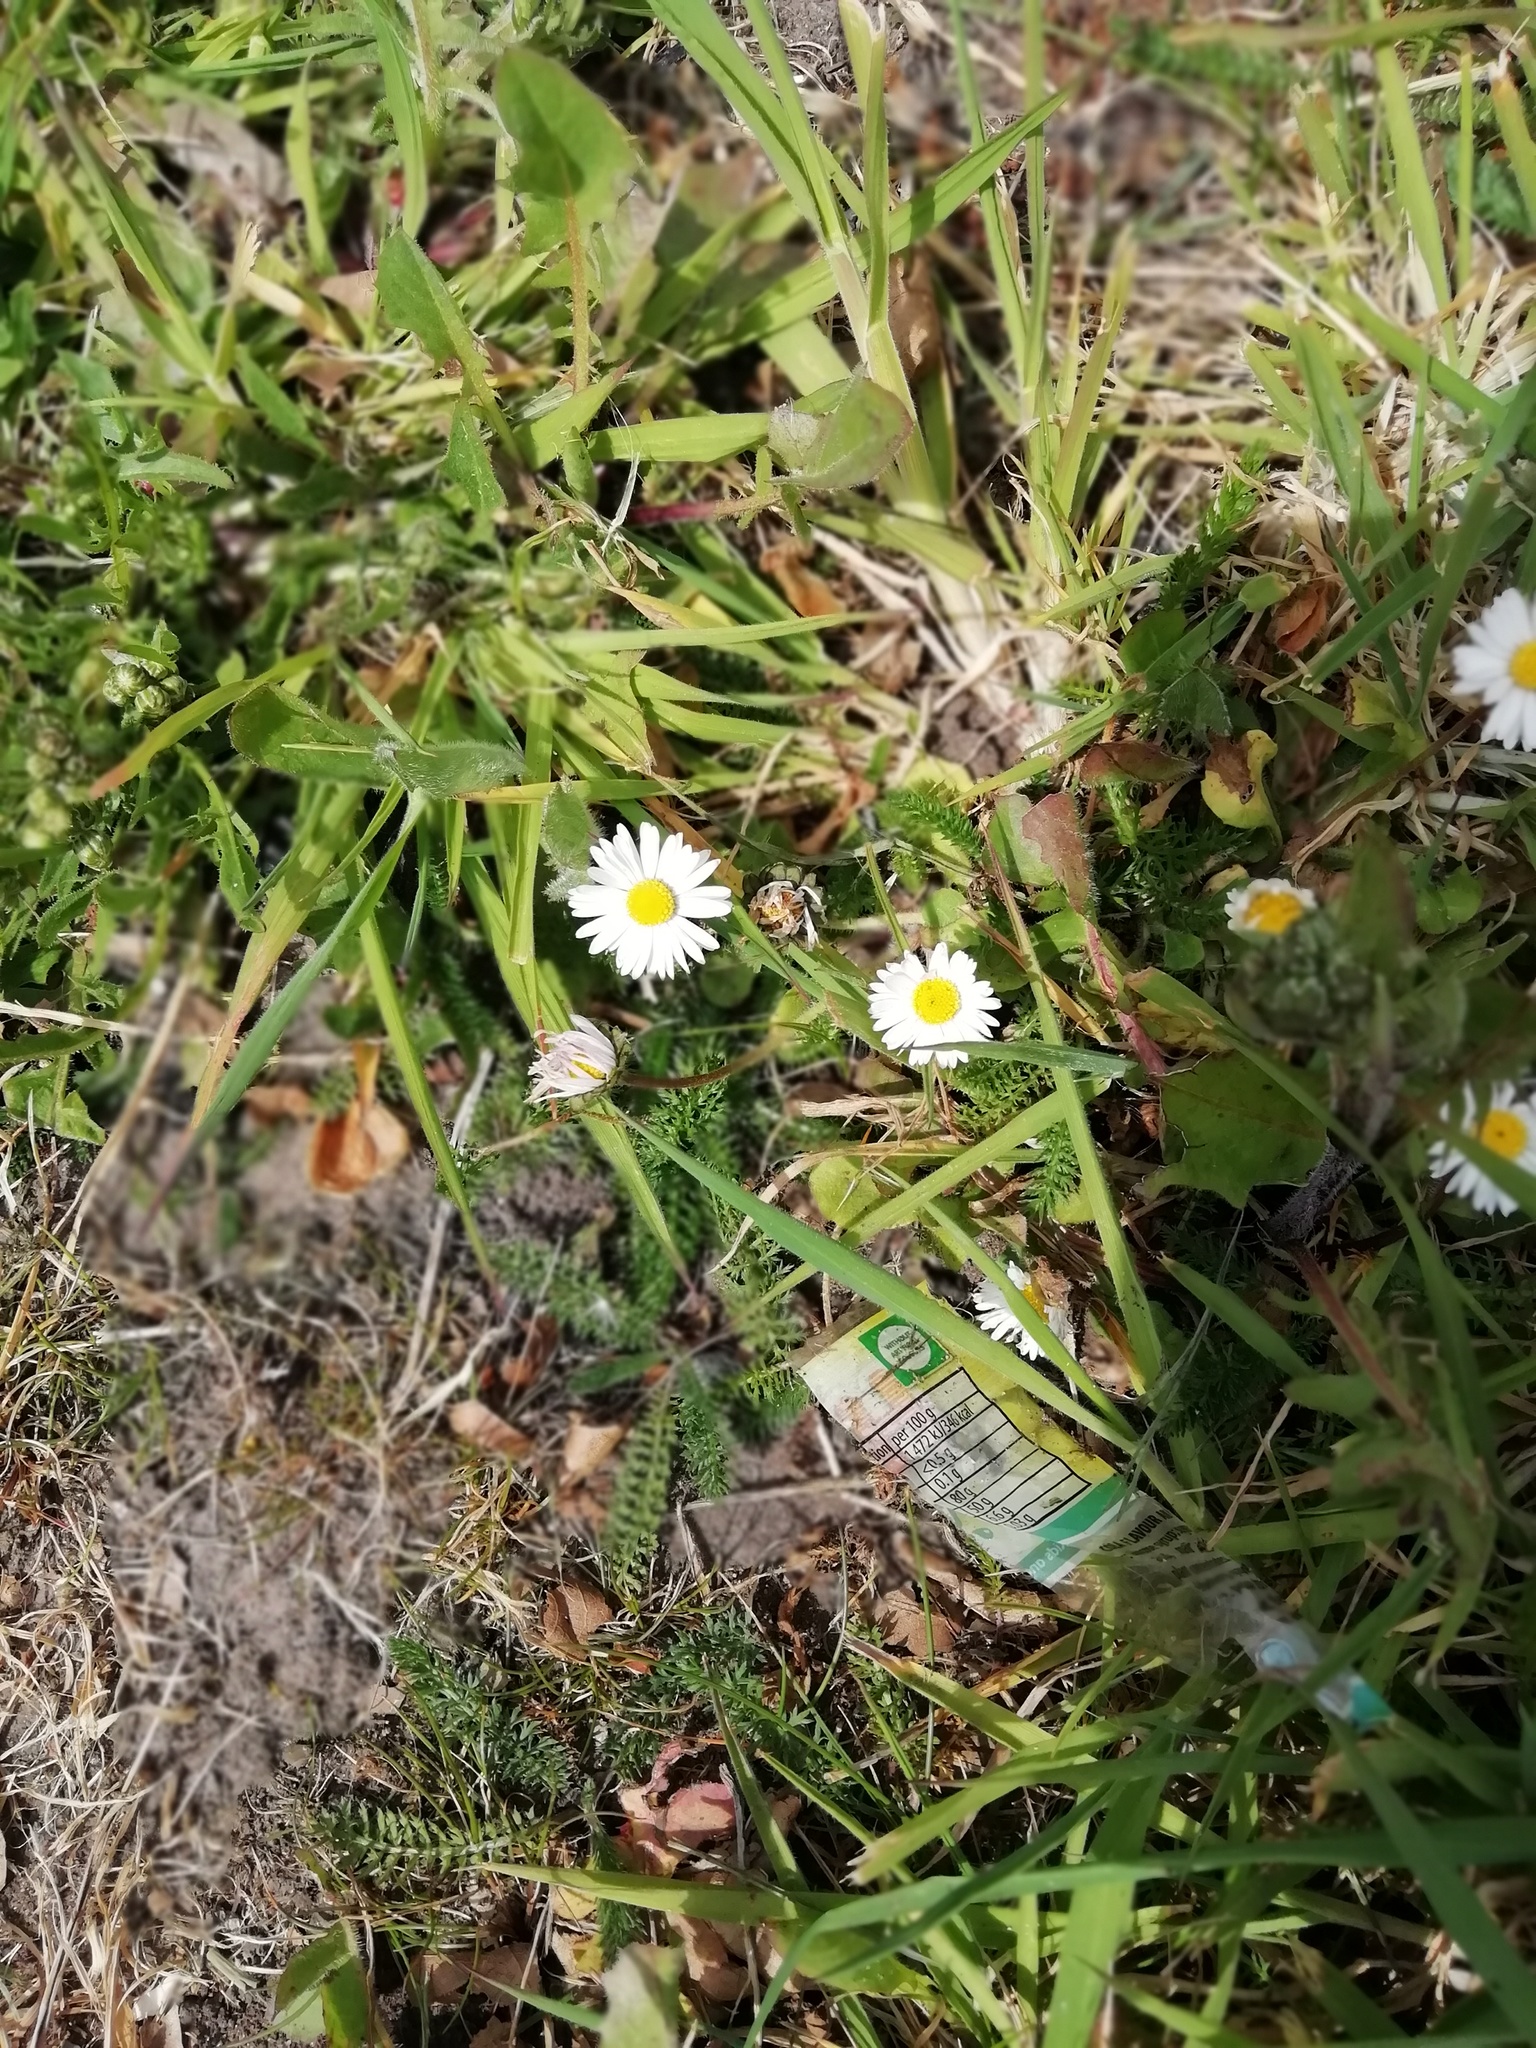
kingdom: Plantae
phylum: Tracheophyta
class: Magnoliopsida
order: Asterales
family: Asteraceae
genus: Bellis
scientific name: Bellis perennis
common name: Lawndaisy
